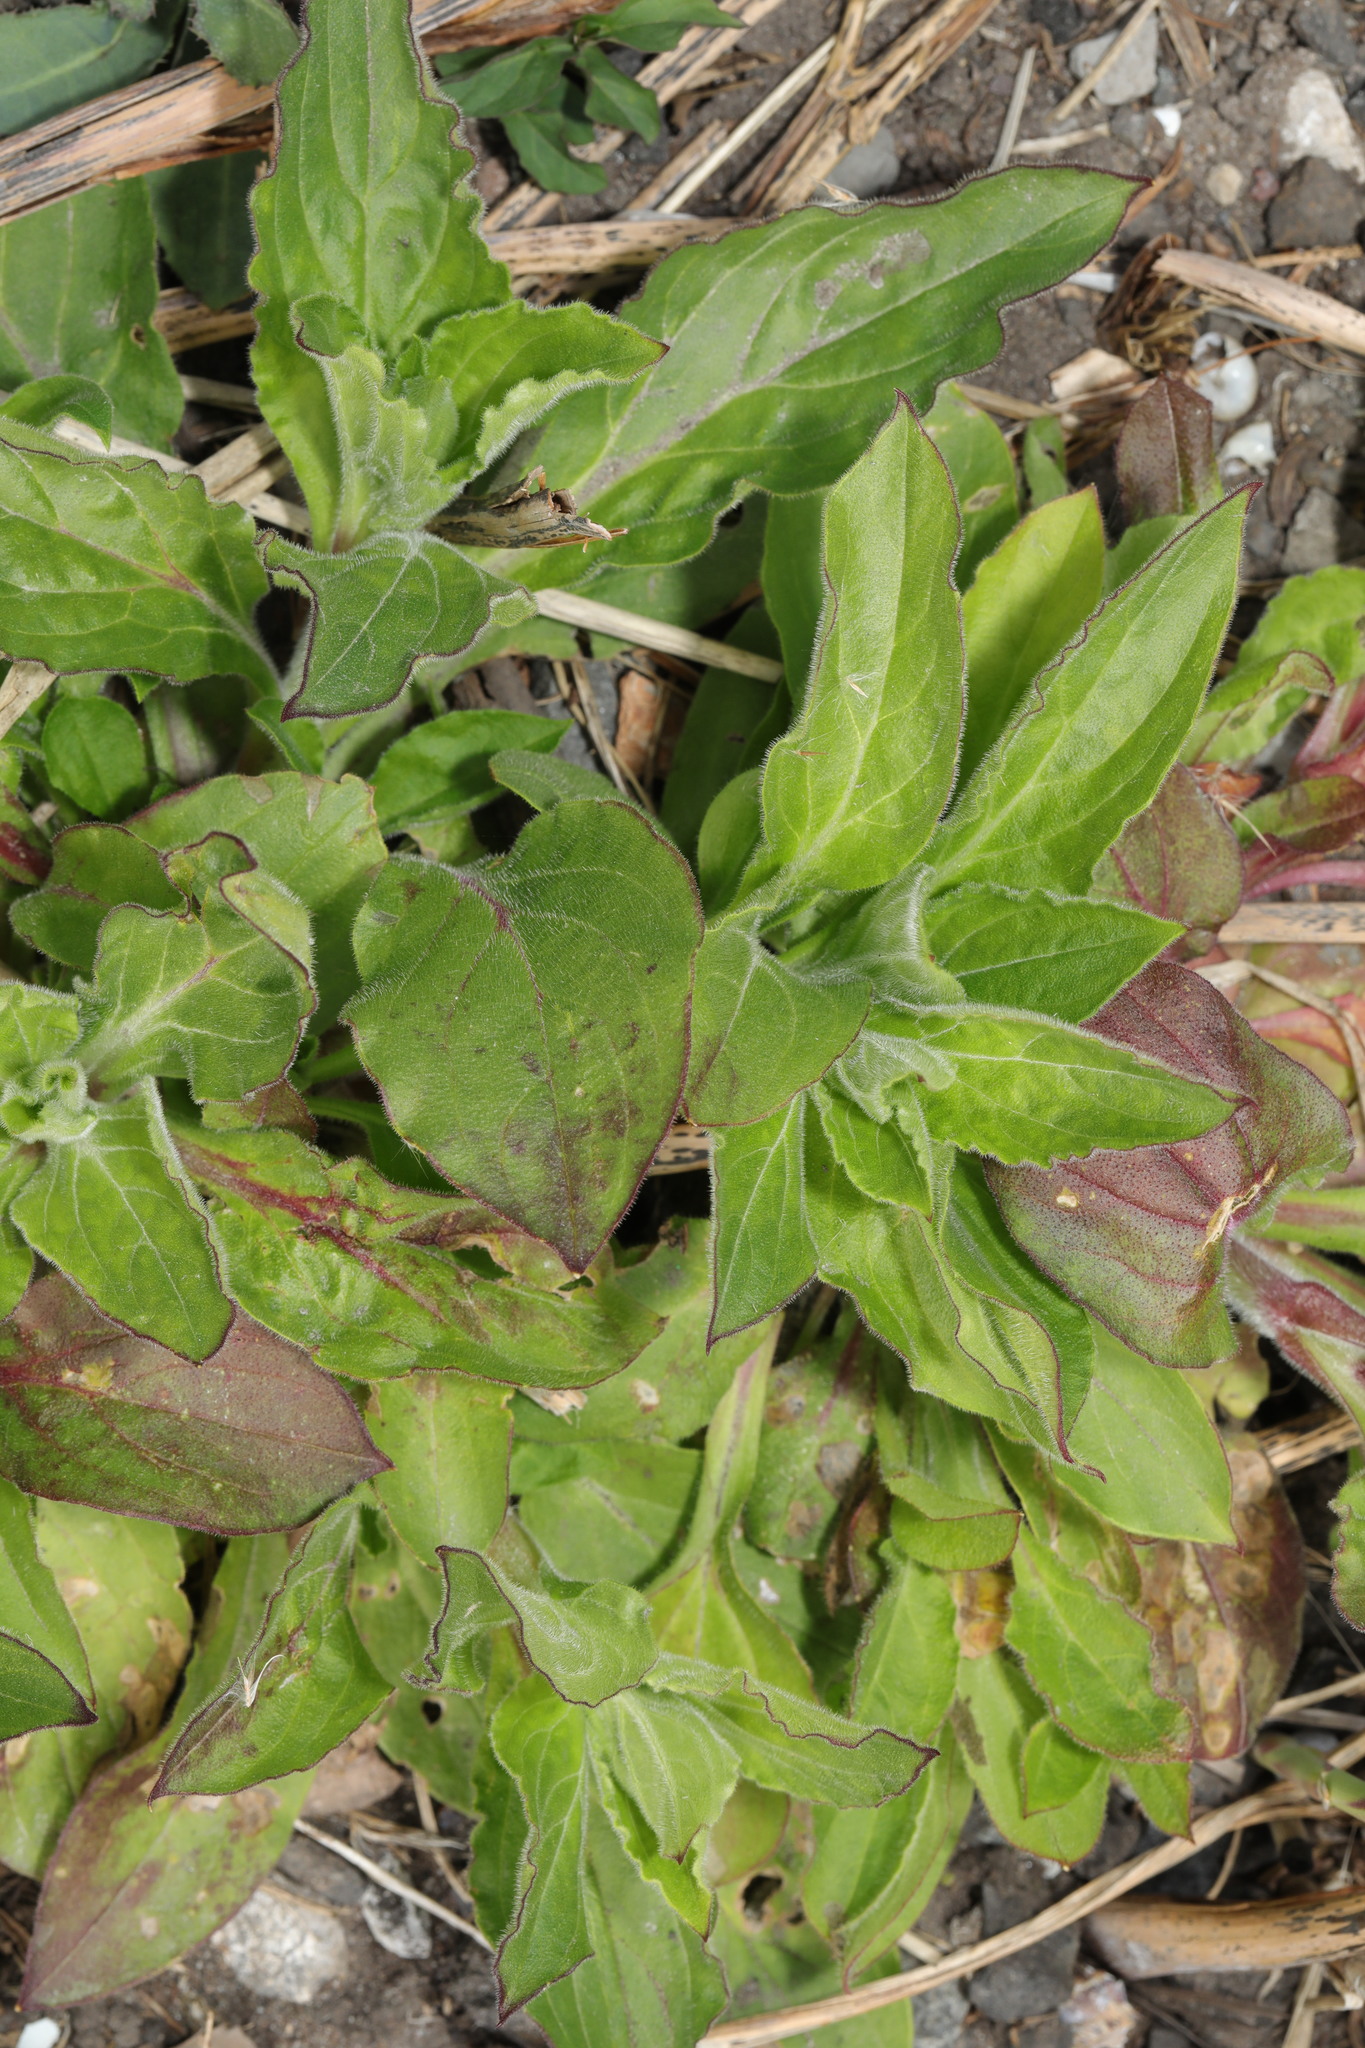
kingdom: Plantae
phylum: Tracheophyta
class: Magnoliopsida
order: Caryophyllales
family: Caryophyllaceae
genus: Silene
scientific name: Silene dioica
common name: Red campion
